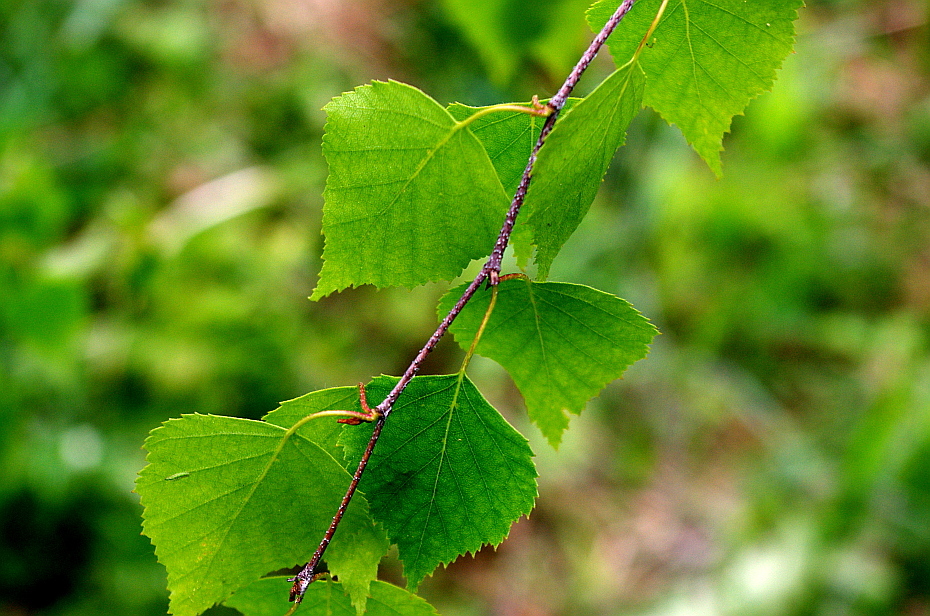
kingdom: Plantae
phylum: Tracheophyta
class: Magnoliopsida
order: Fagales
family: Betulaceae
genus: Betula
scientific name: Betula pendula
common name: Silver birch
